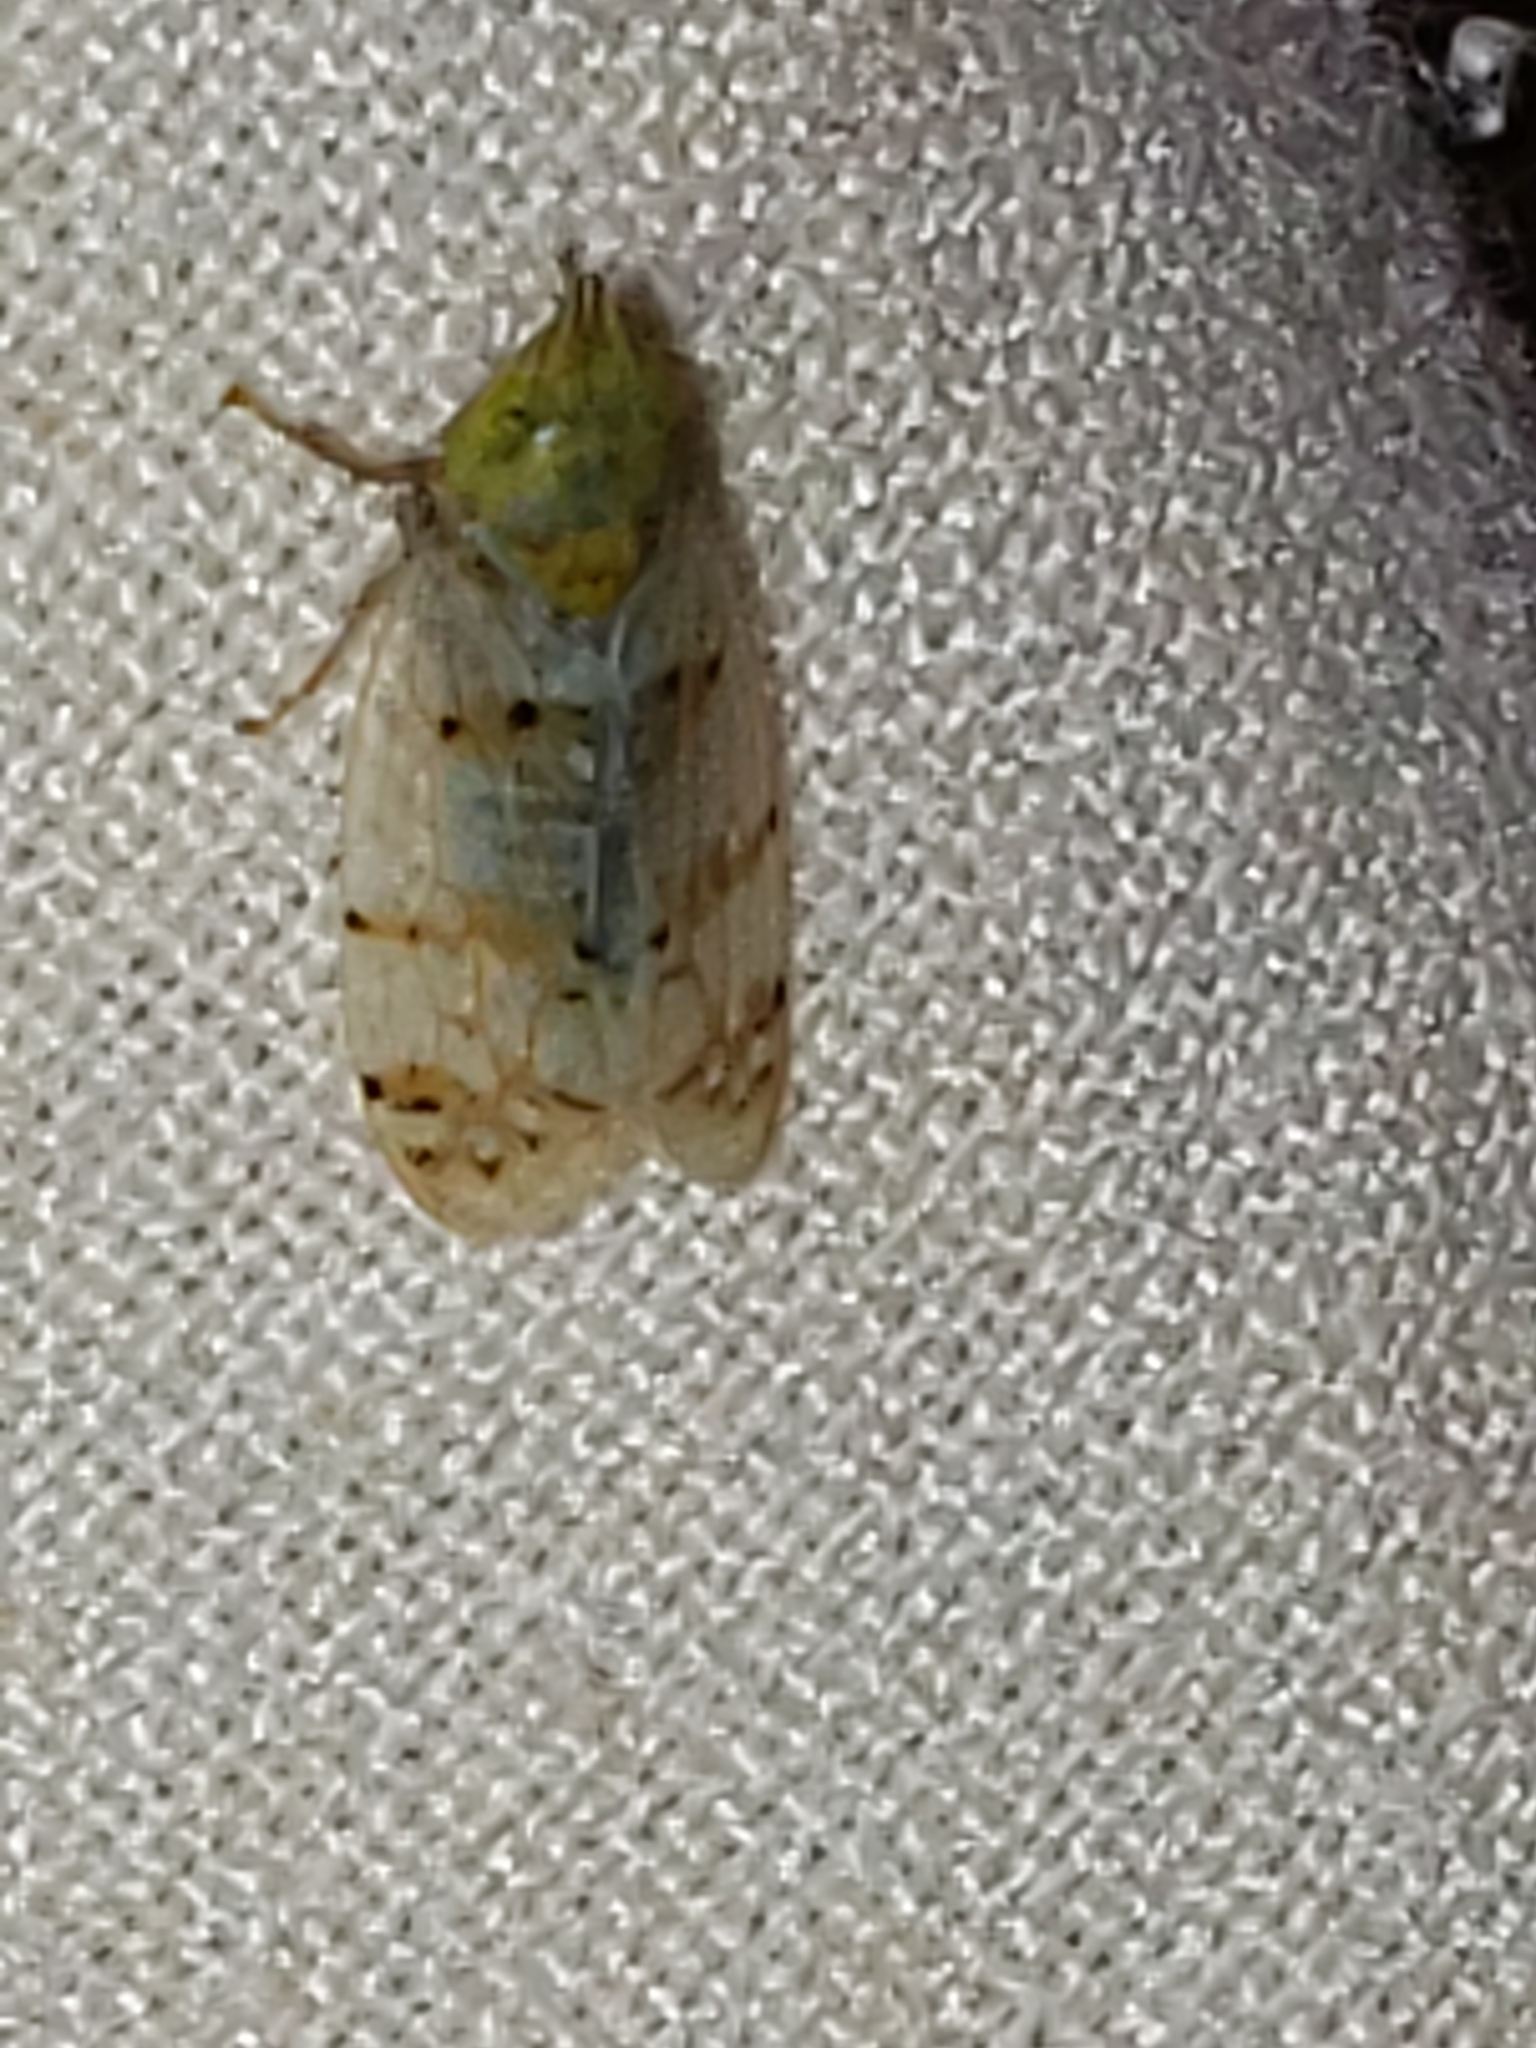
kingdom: Animalia
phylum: Arthropoda
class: Insecta
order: Hemiptera
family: Cicadellidae
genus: Japananus
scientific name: Japananus hyalinus
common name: The japanese maple leafhopper
